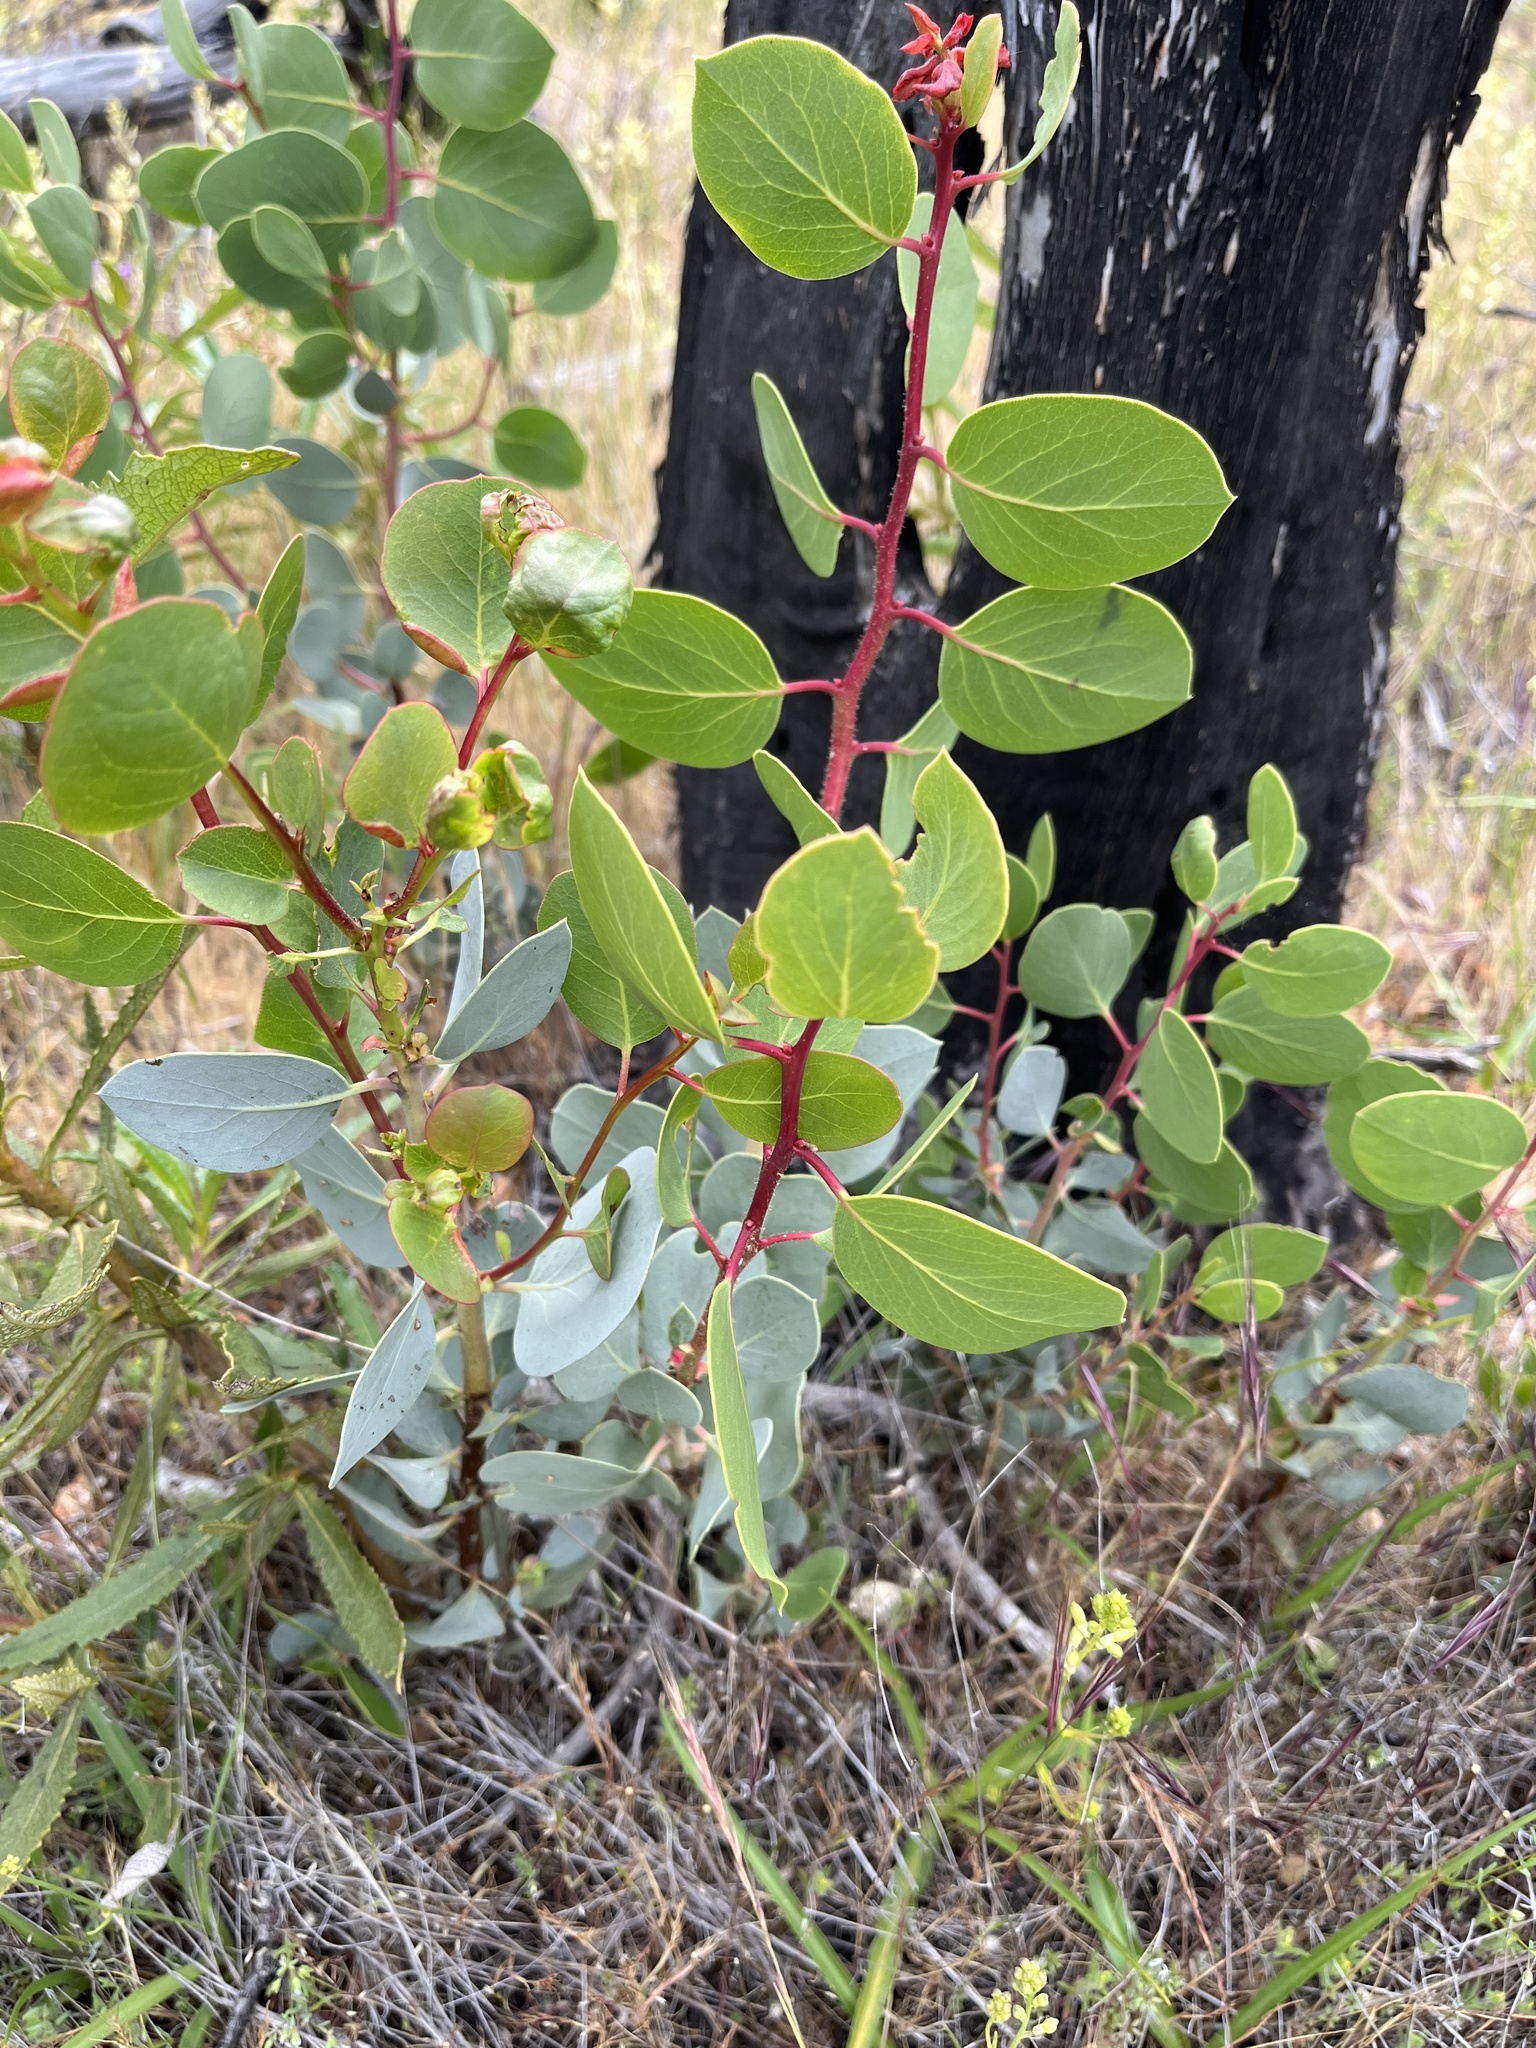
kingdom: Plantae
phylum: Tracheophyta
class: Magnoliopsida
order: Ericales
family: Ericaceae
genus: Arctostaphylos
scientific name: Arctostaphylos viscida
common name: White-leaf manzanita
